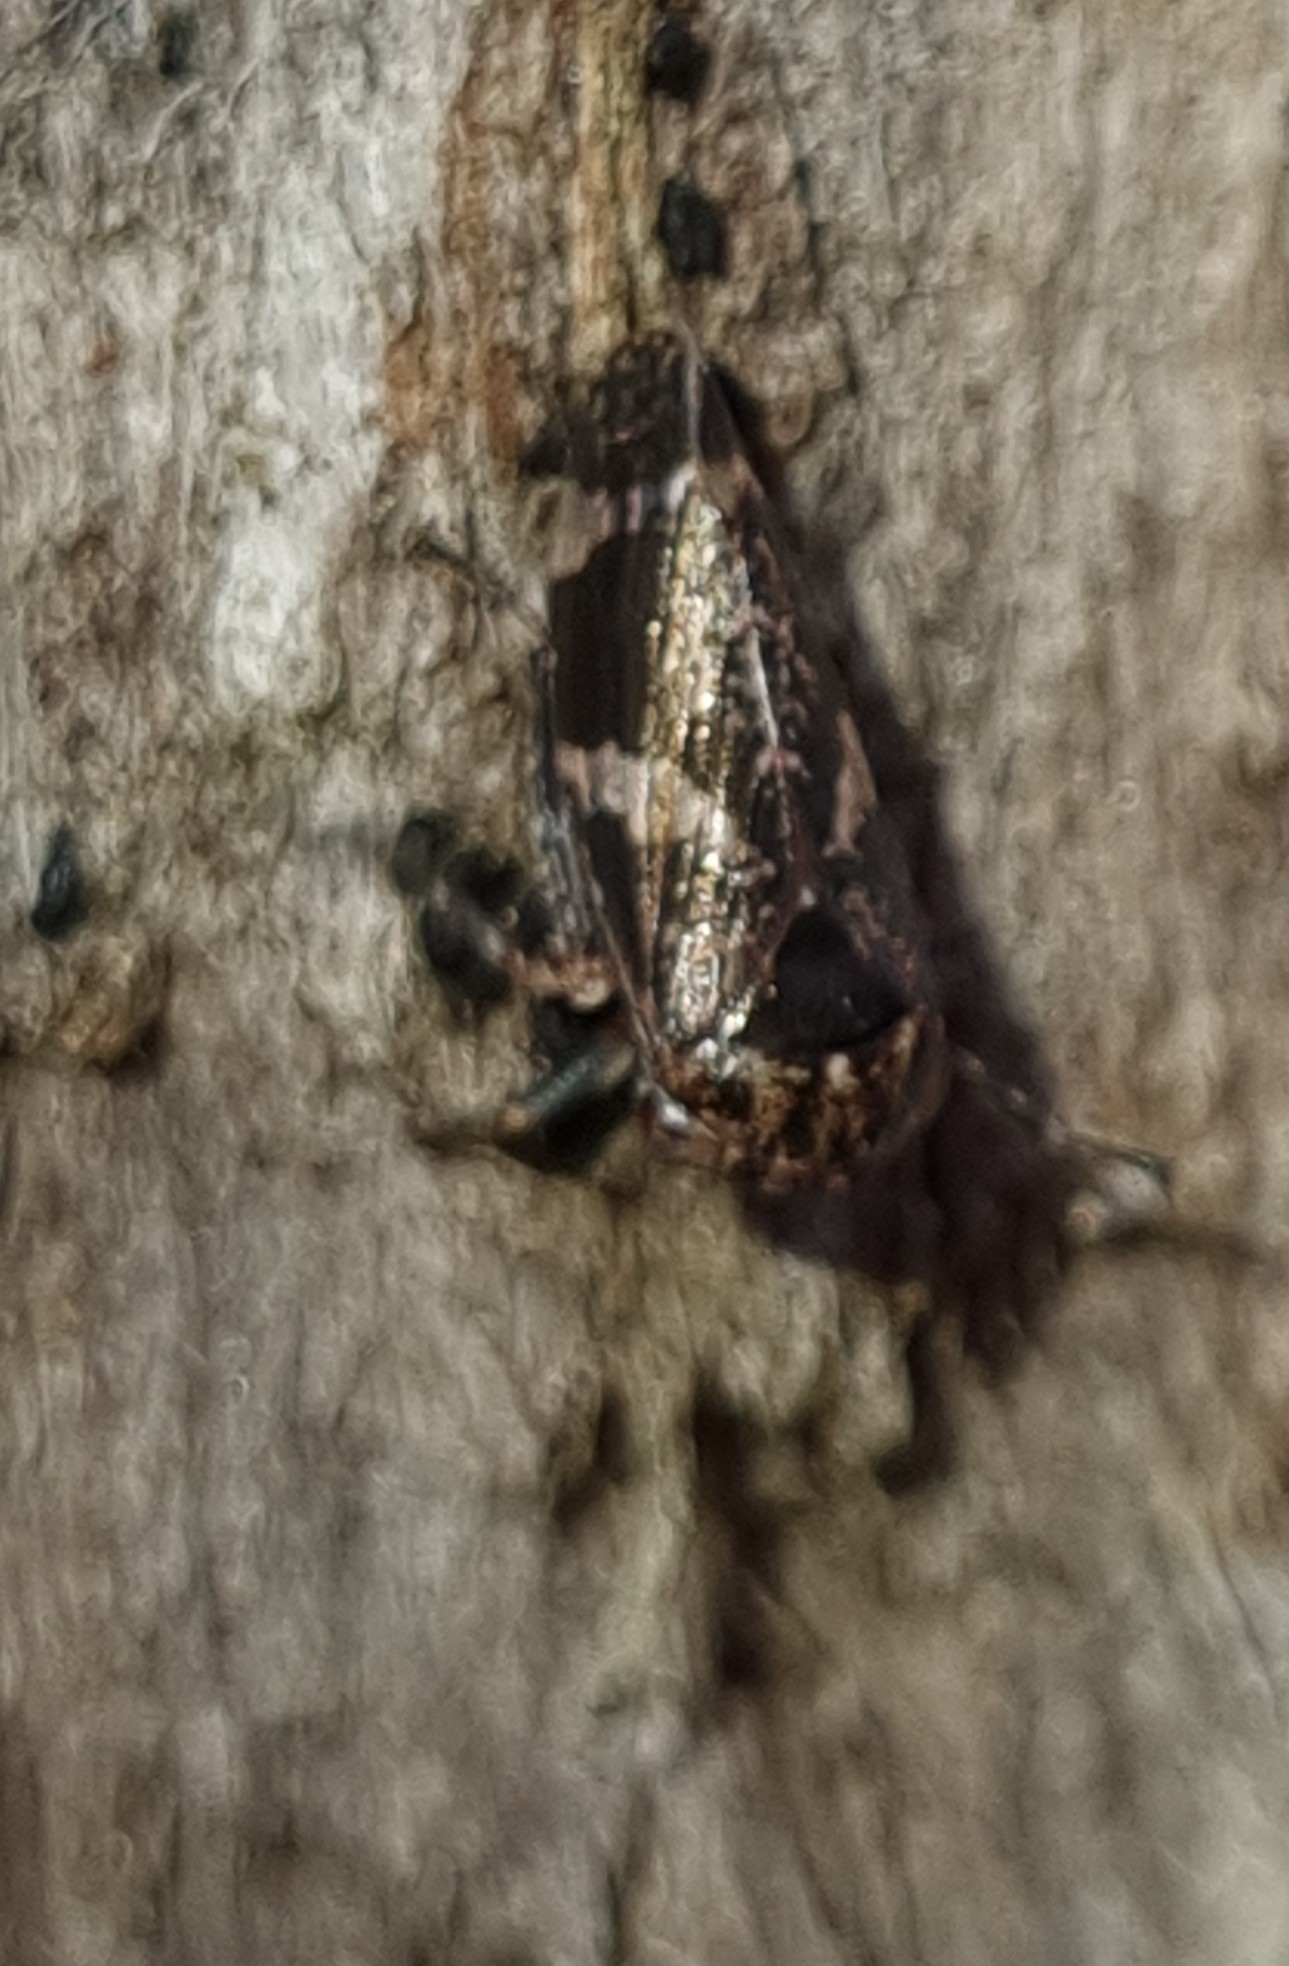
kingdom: Animalia
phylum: Arthropoda
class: Insecta
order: Hemiptera
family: Cicadellidae
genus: Eurymeloides
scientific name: Eurymeloides adspersa
